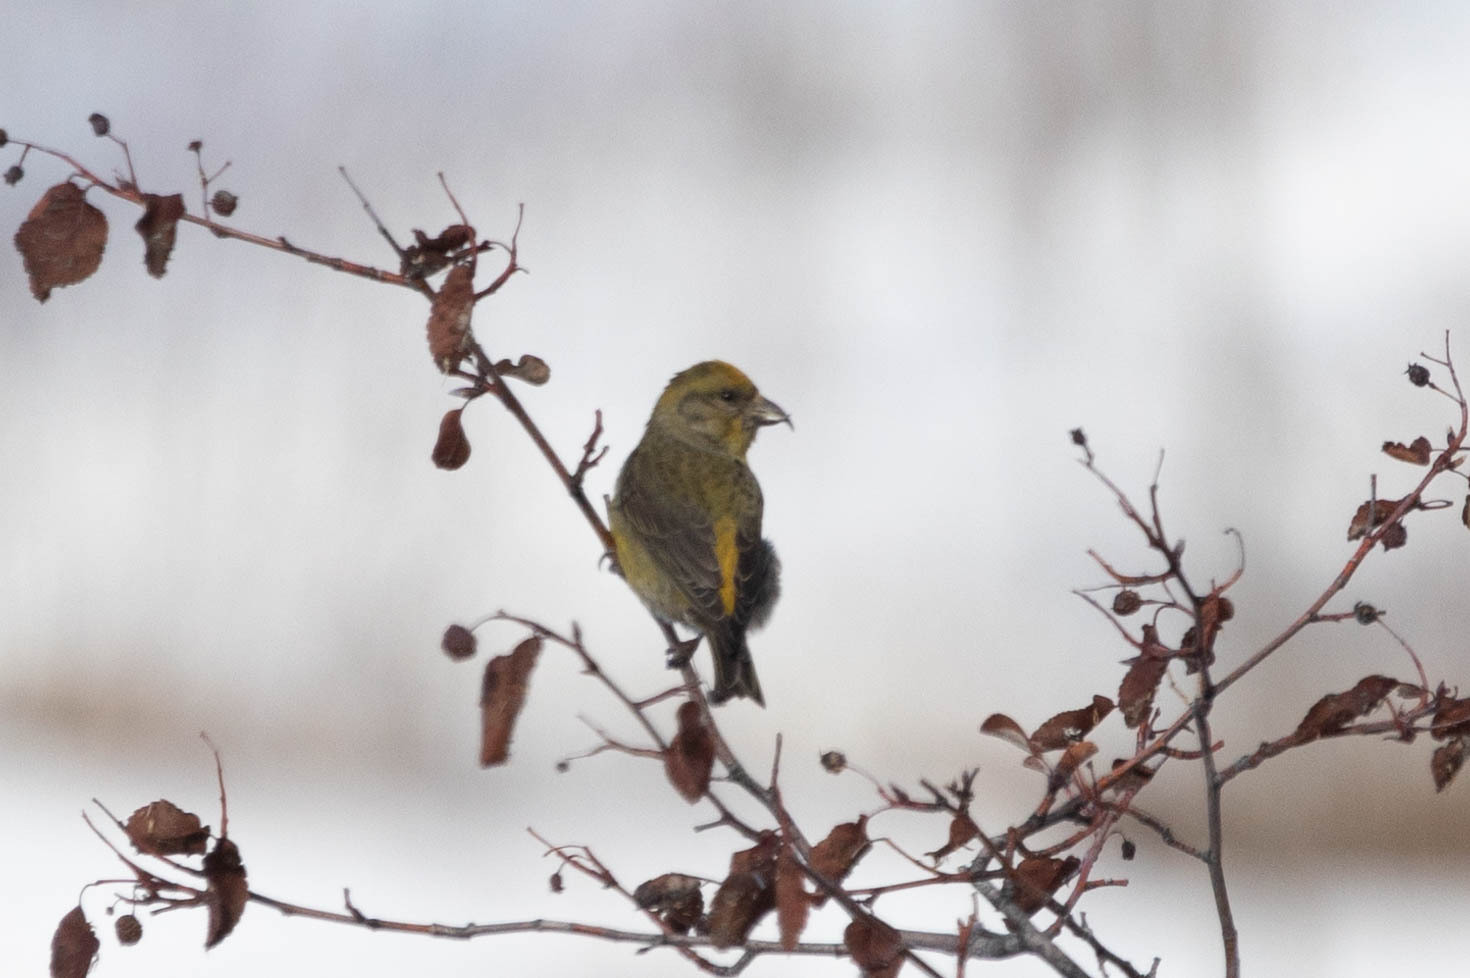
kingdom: Animalia
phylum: Chordata
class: Aves
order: Passeriformes
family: Fringillidae
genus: Loxia
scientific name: Loxia curvirostra
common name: Red crossbill
